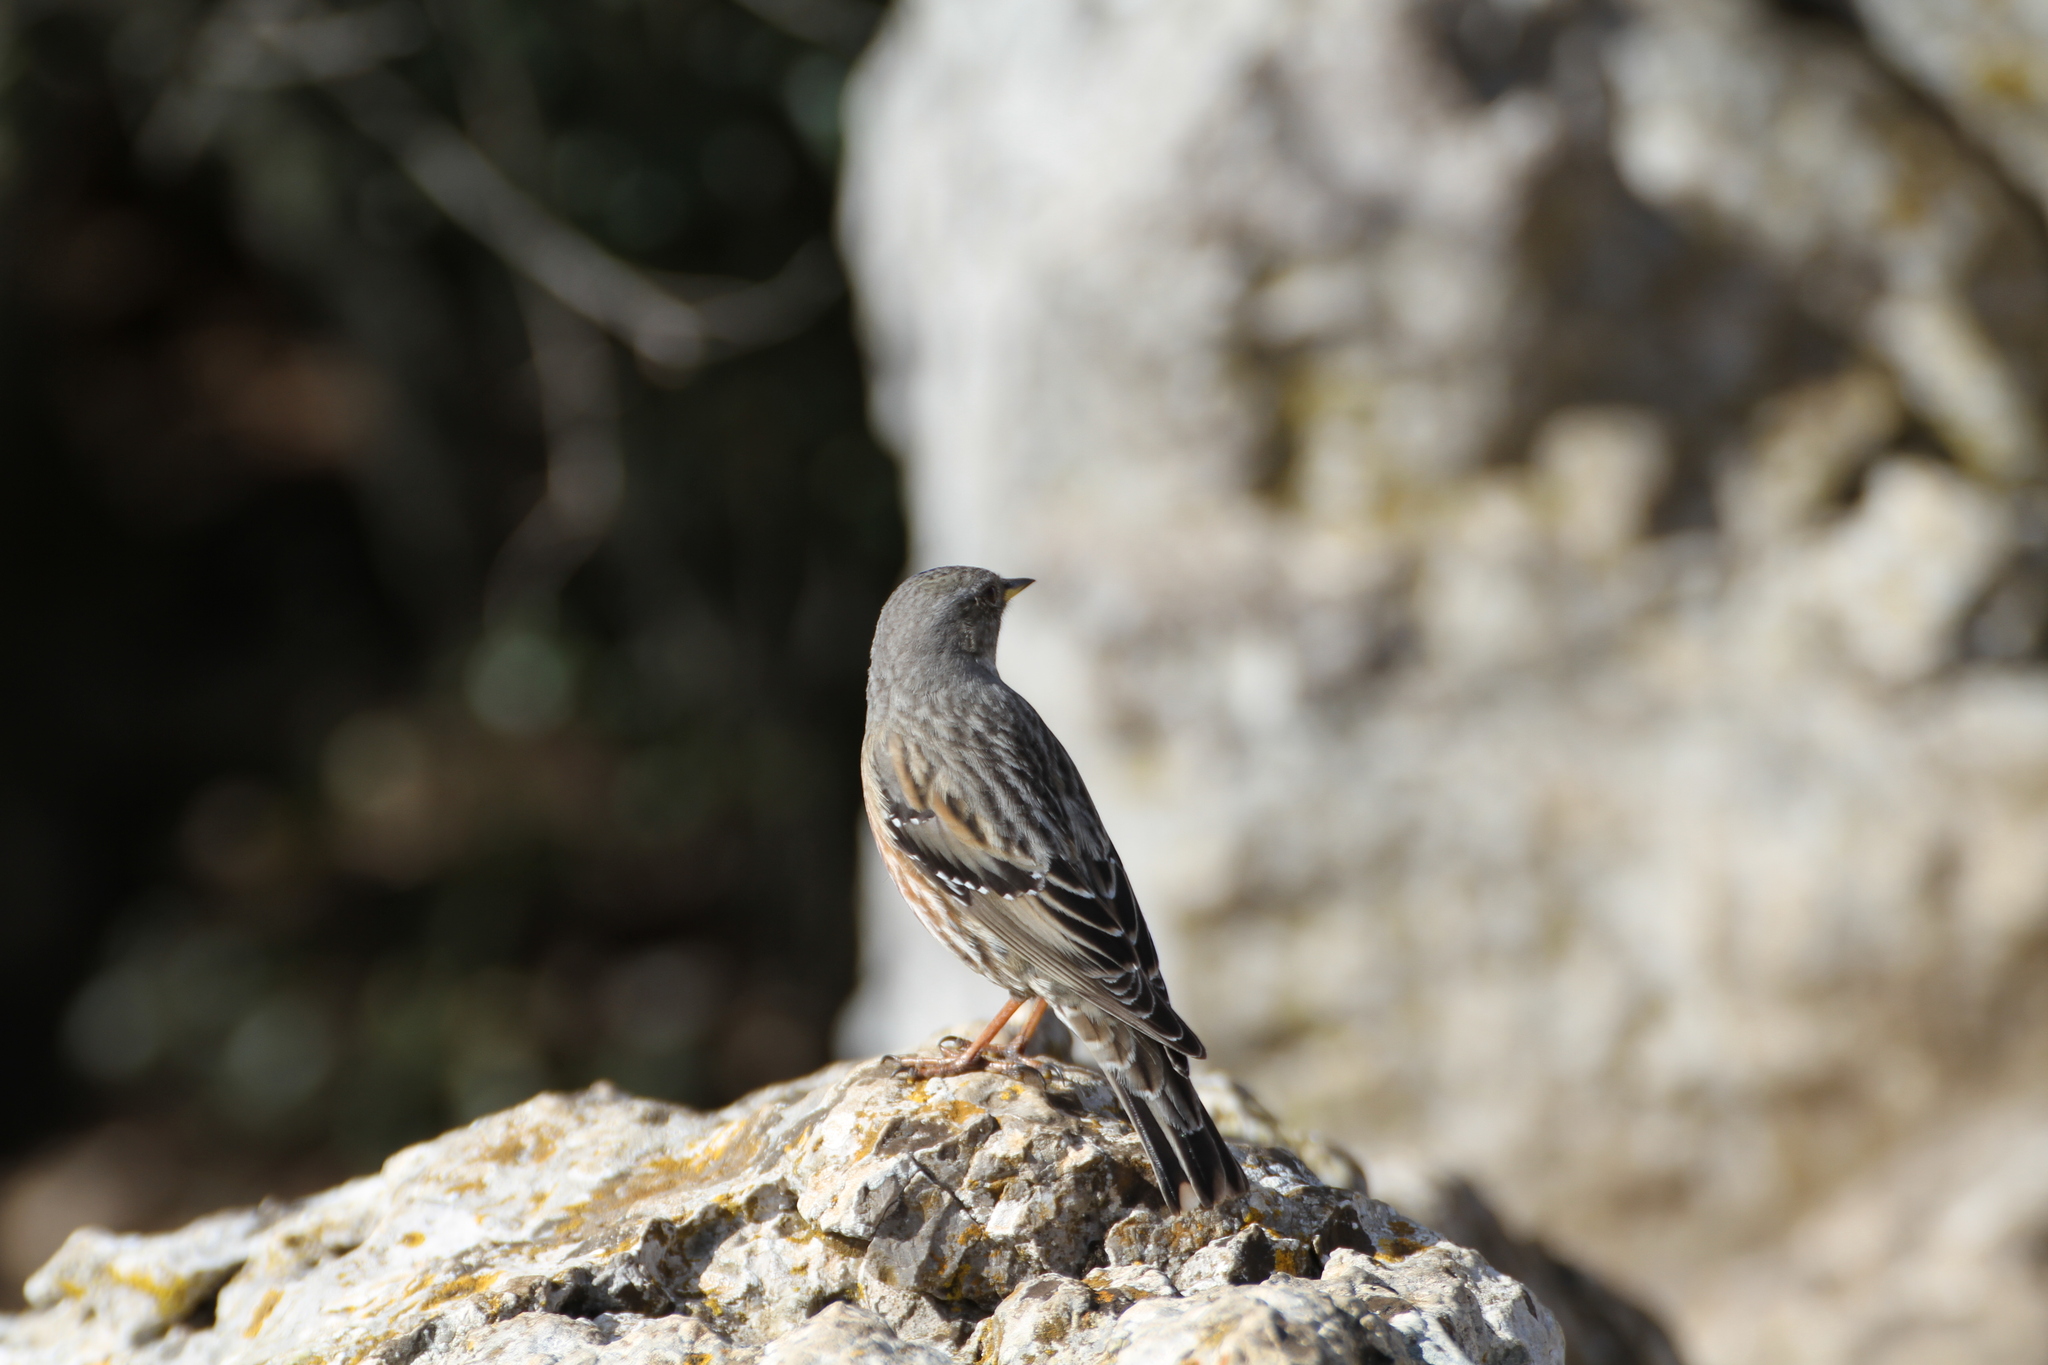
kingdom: Animalia
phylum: Chordata
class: Aves
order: Passeriformes
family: Prunellidae
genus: Prunella
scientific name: Prunella collaris
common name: Alpine accentor
